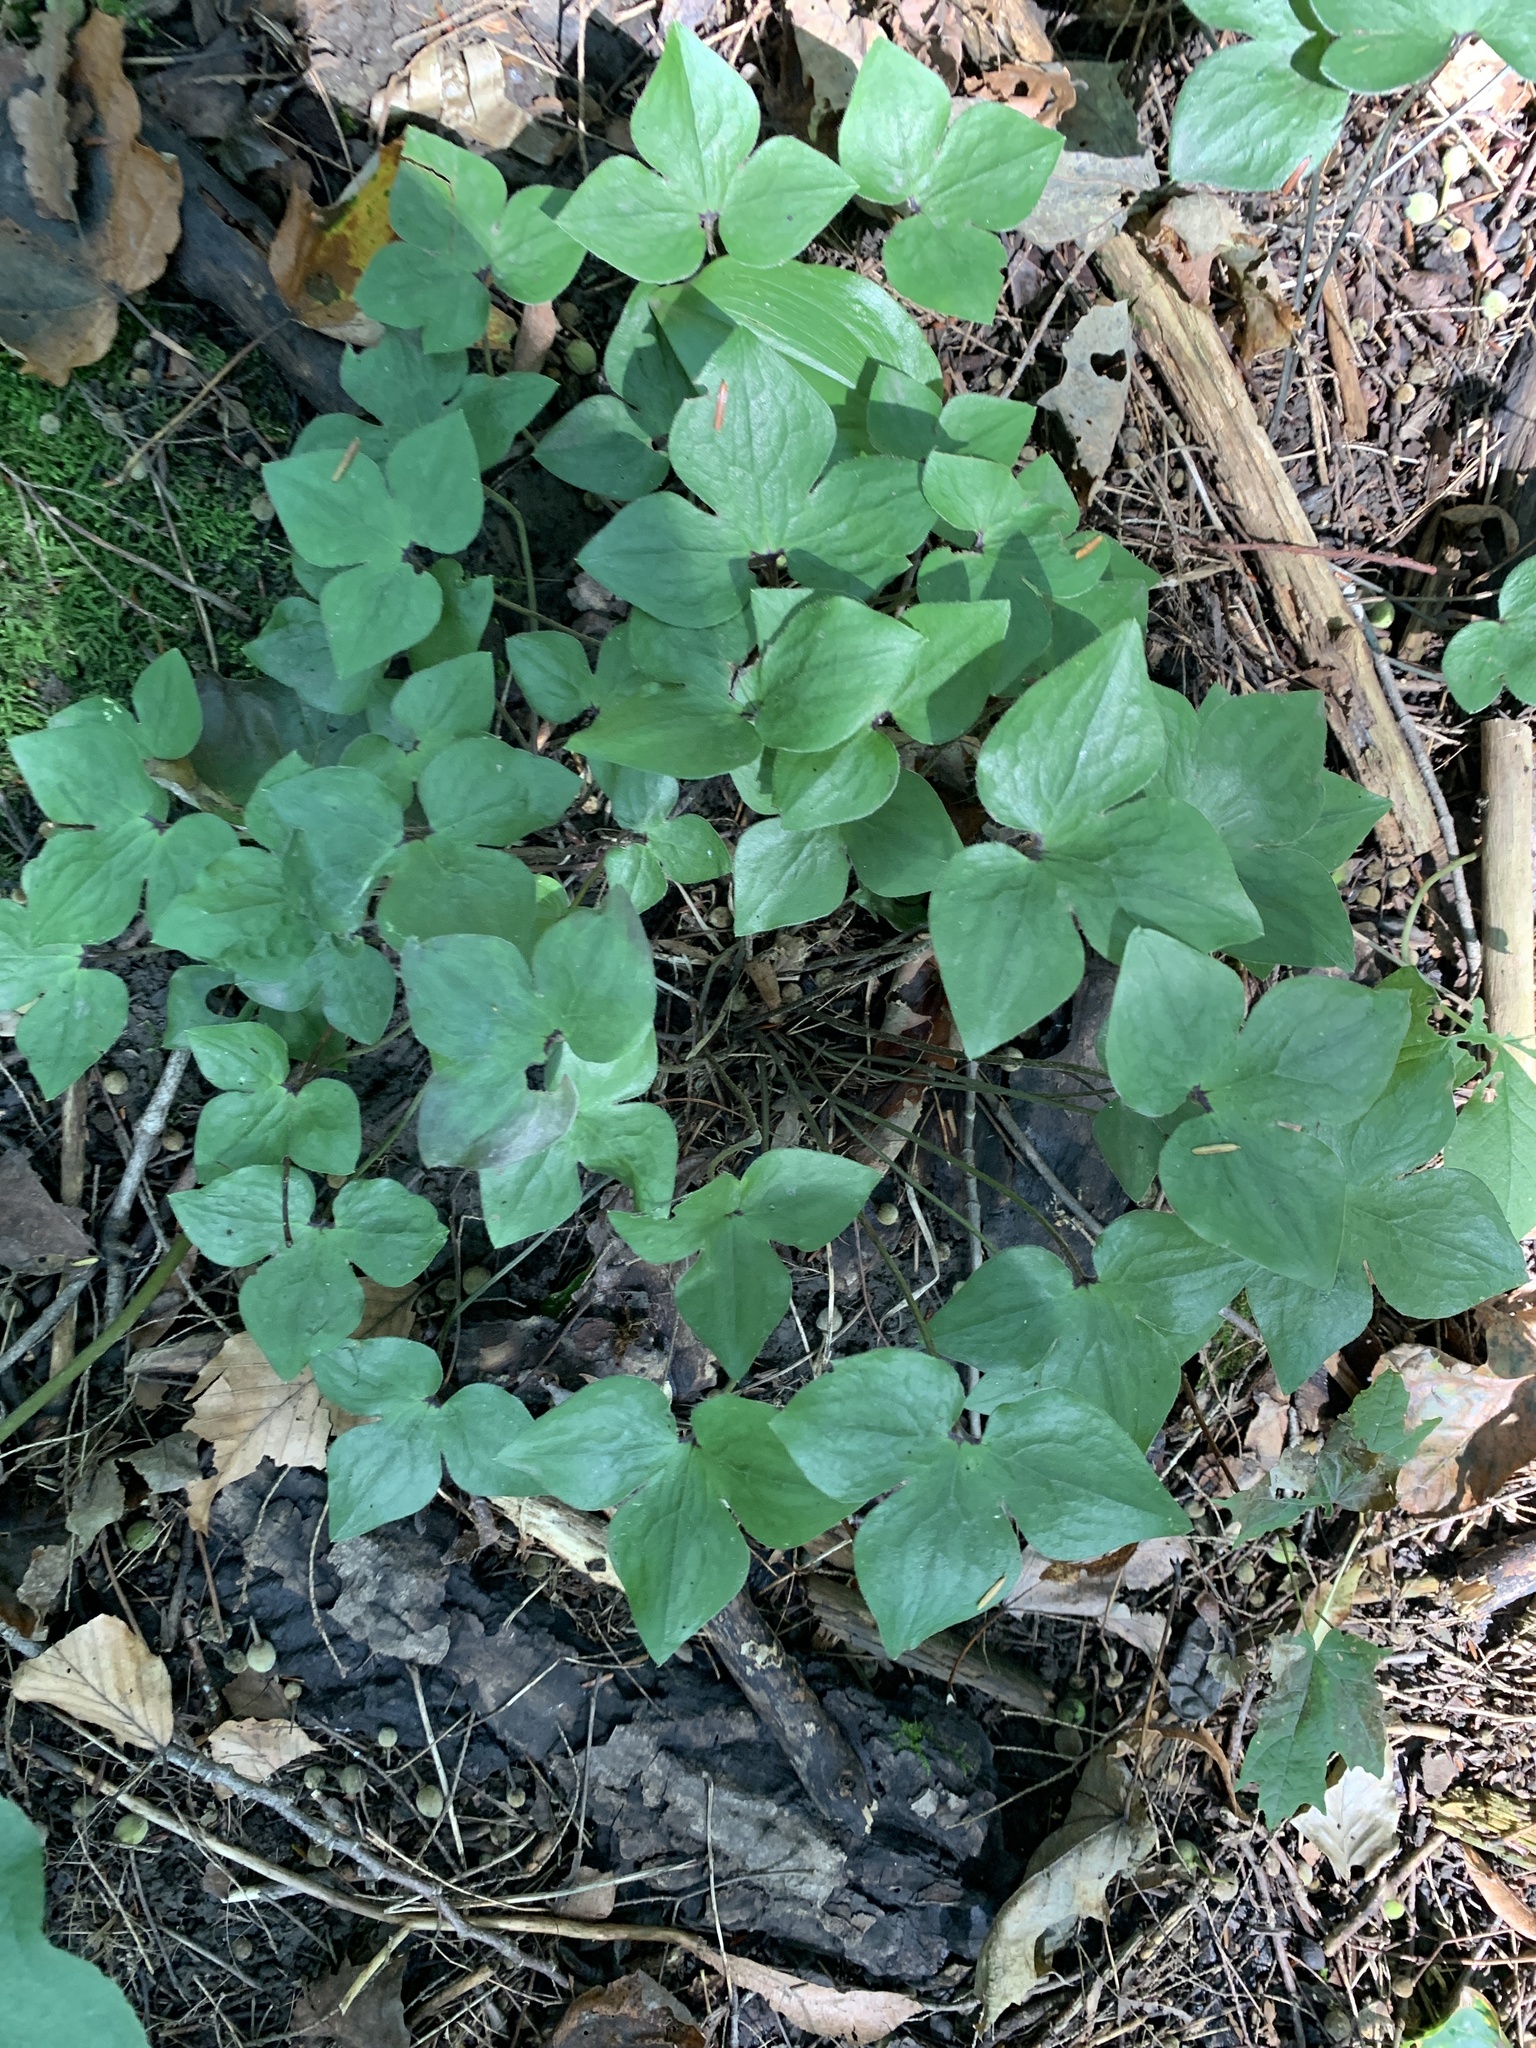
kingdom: Plantae
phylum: Tracheophyta
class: Magnoliopsida
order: Ranunculales
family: Ranunculaceae
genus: Hepatica
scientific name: Hepatica acutiloba
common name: Sharp-lobed hepatica
